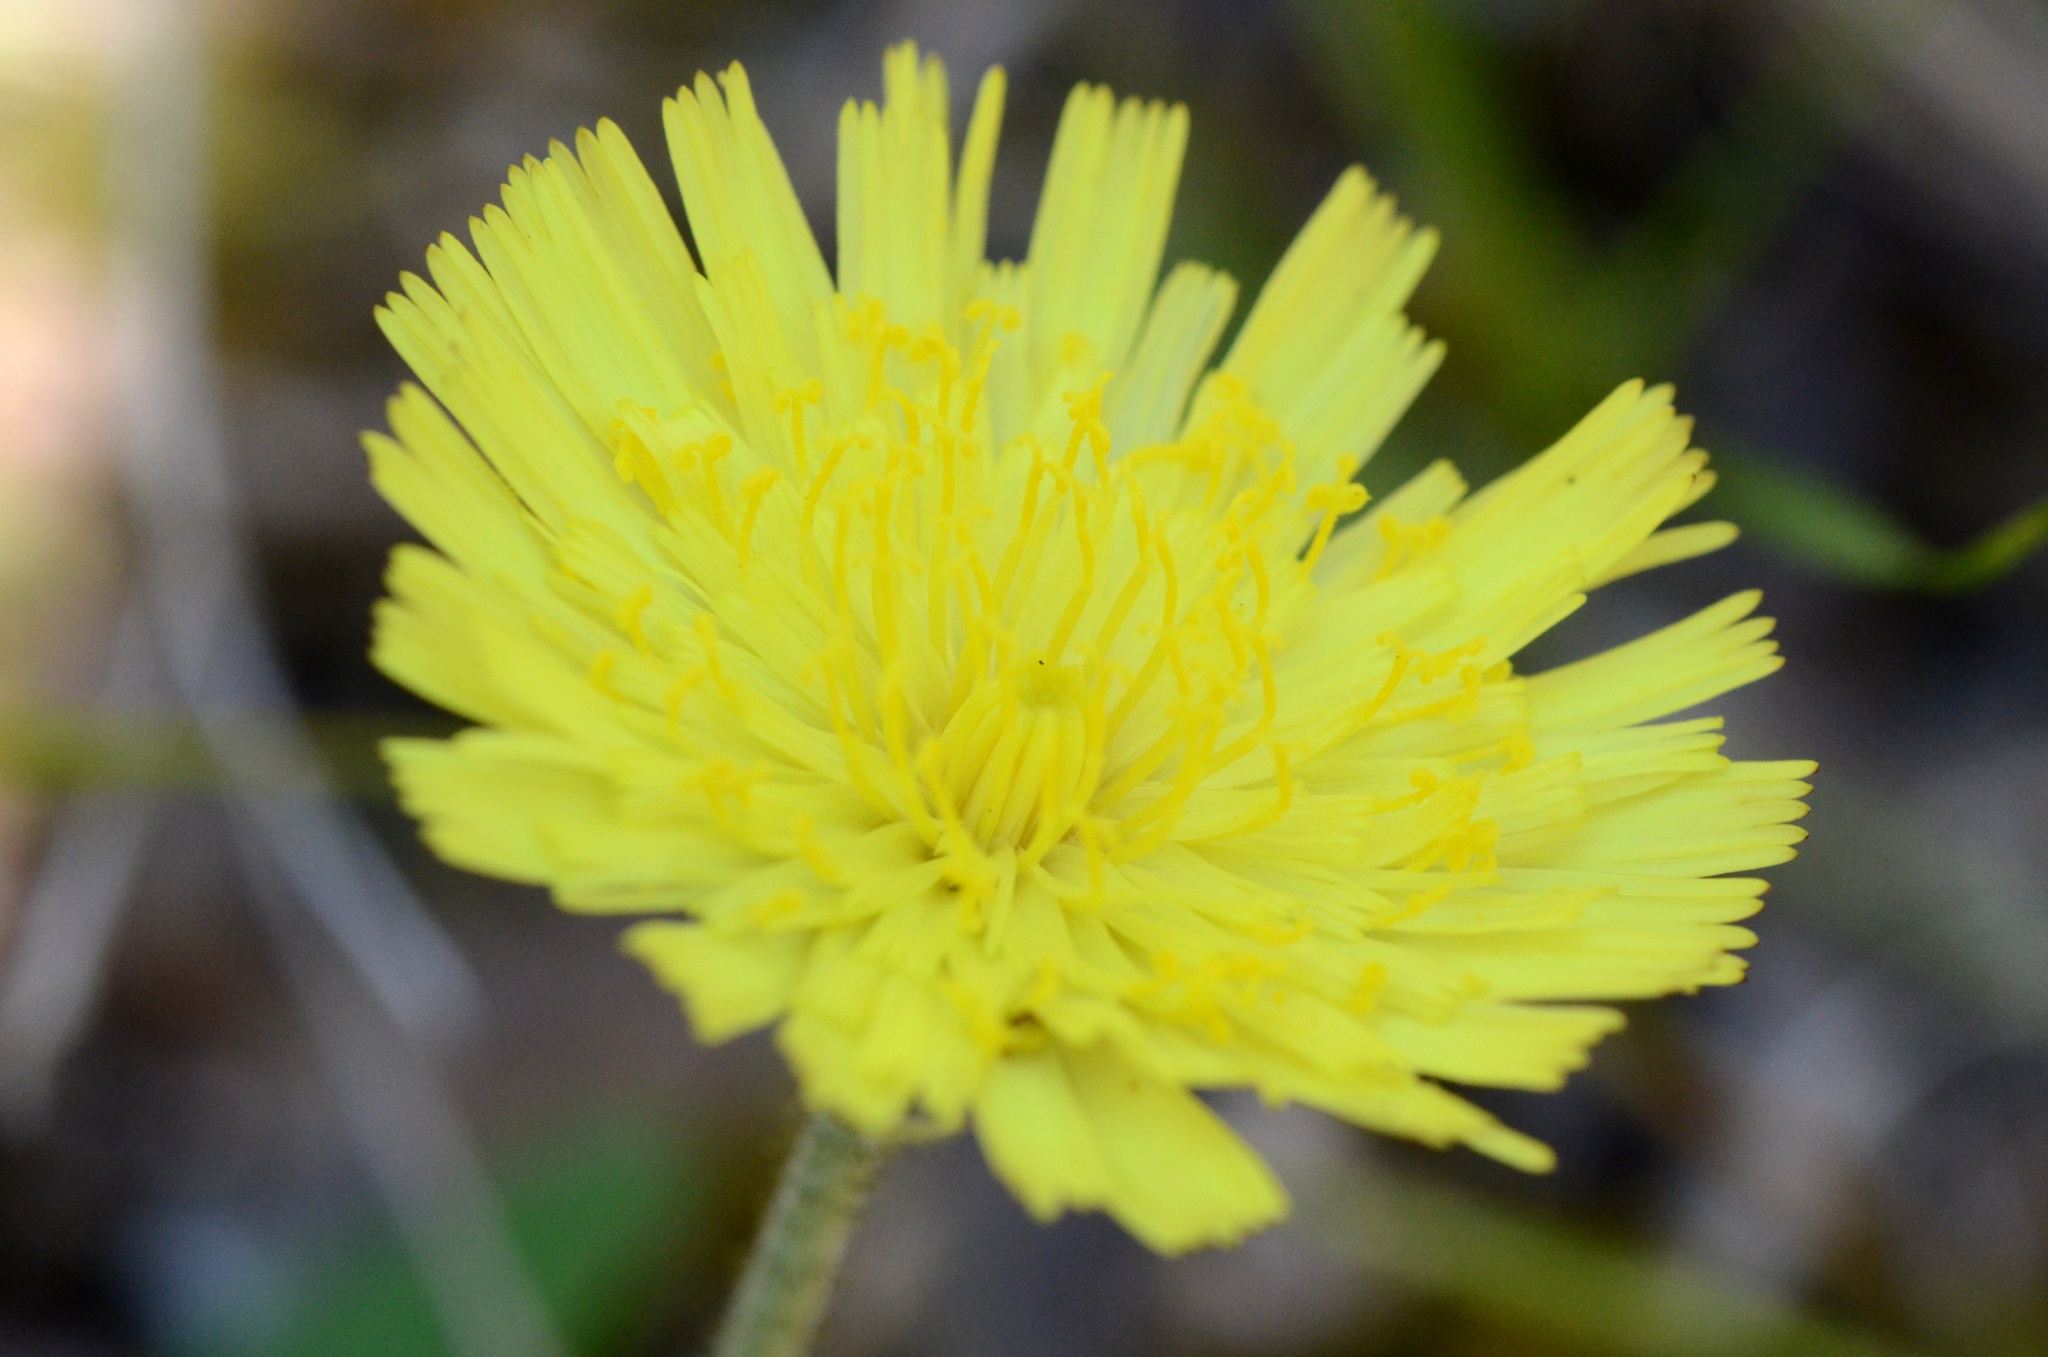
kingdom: Plantae
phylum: Tracheophyta
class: Magnoliopsida
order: Asterales
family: Asteraceae
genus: Pilosella
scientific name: Pilosella officinarum
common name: Mouse-ear hawkweed
